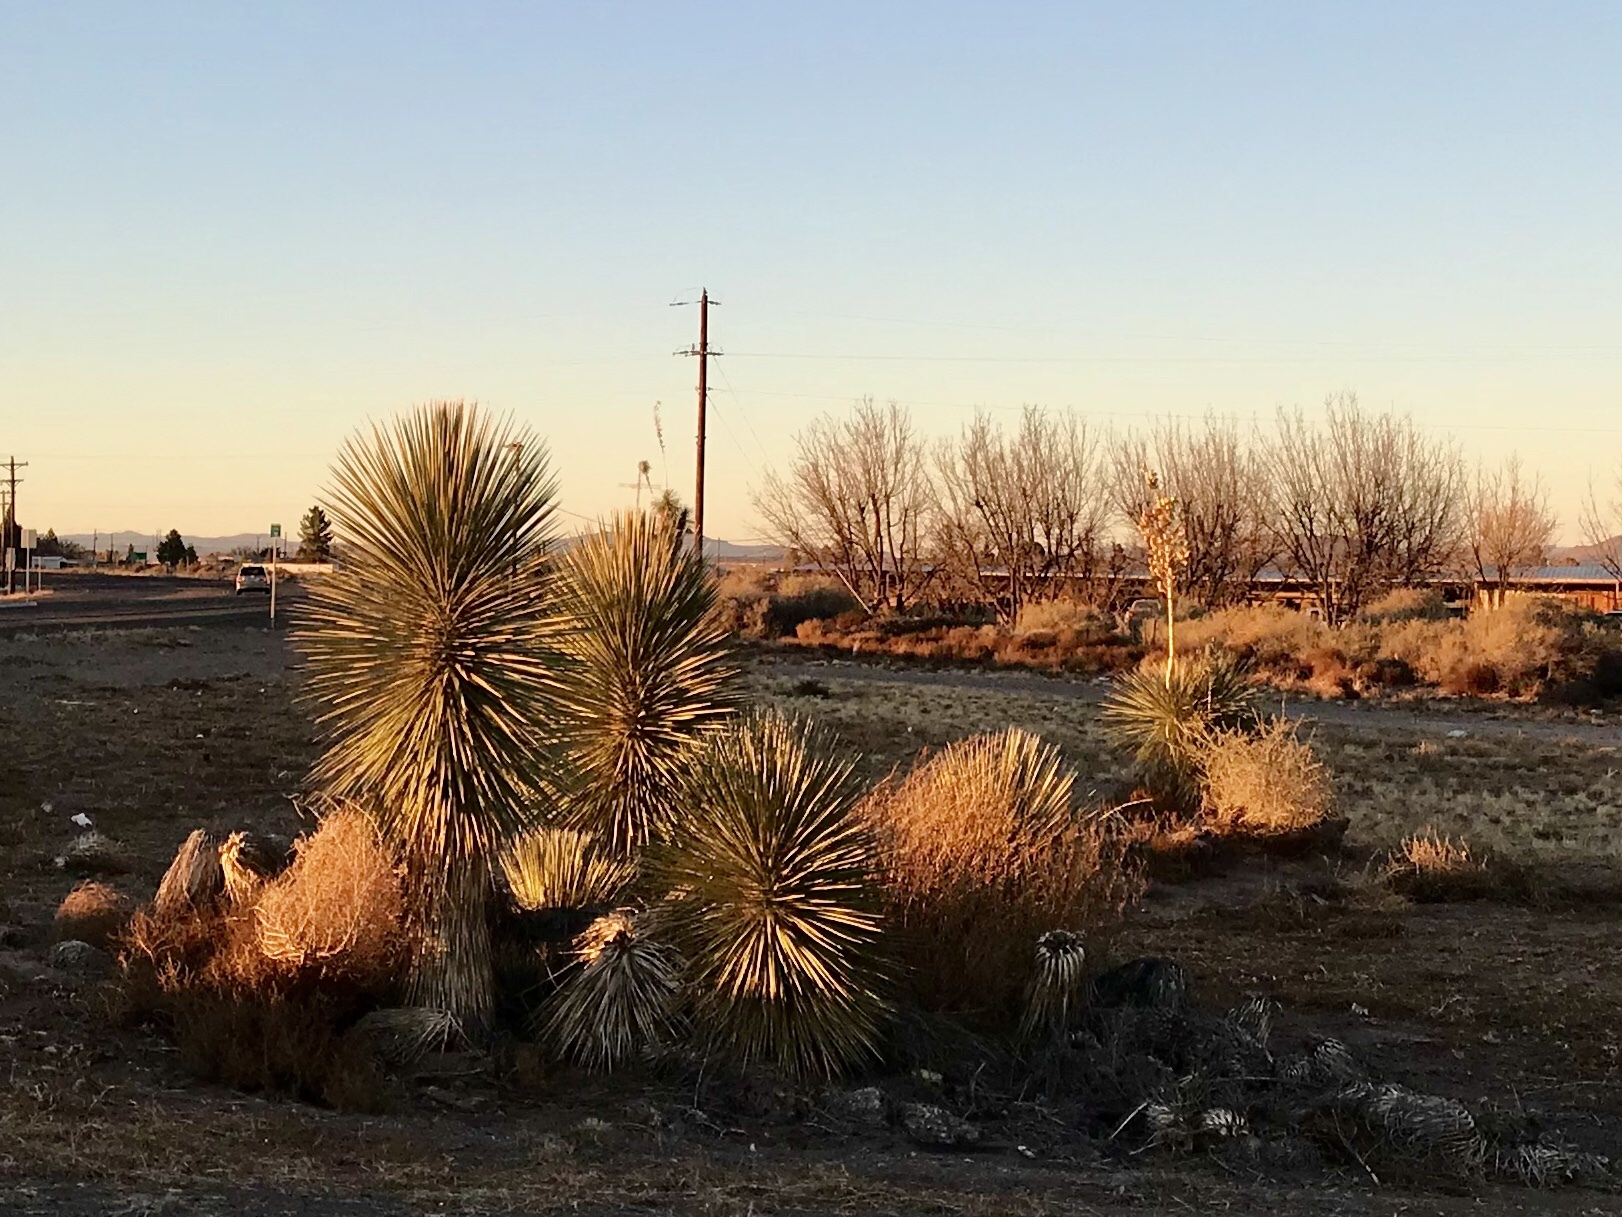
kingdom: Plantae
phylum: Tracheophyta
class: Liliopsida
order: Asparagales
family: Asparagaceae
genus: Yucca
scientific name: Yucca elata
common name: Palmella
